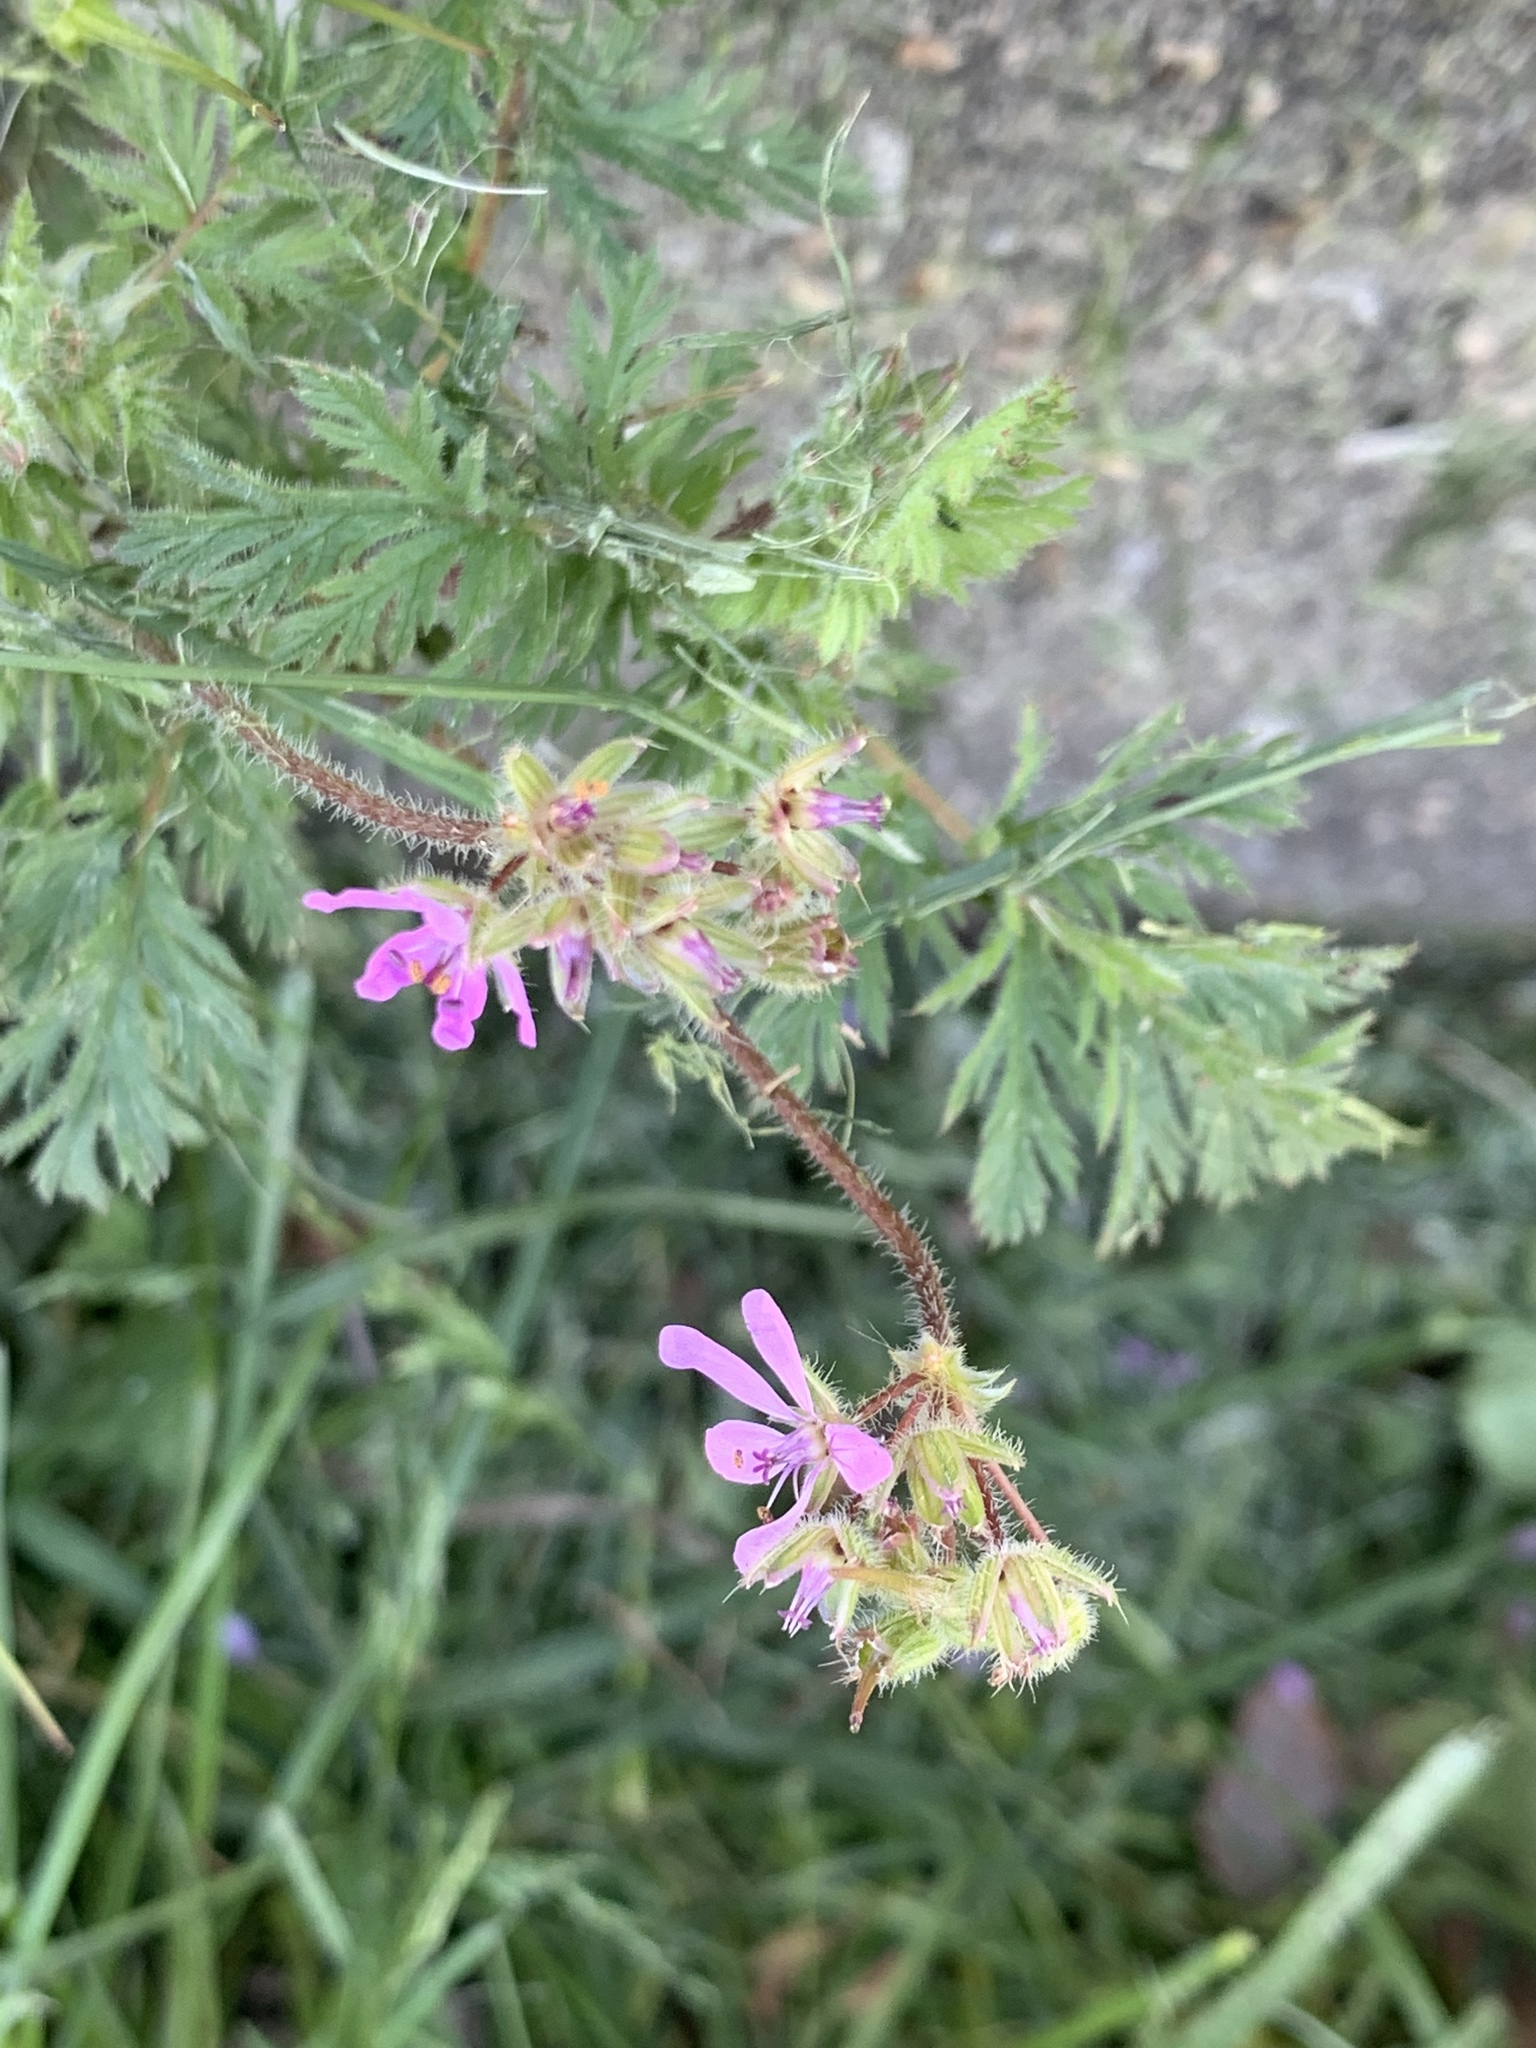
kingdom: Plantae
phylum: Tracheophyta
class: Magnoliopsida
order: Geraniales
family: Geraniaceae
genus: Erodium
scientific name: Erodium cicutarium
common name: Common stork's-bill
